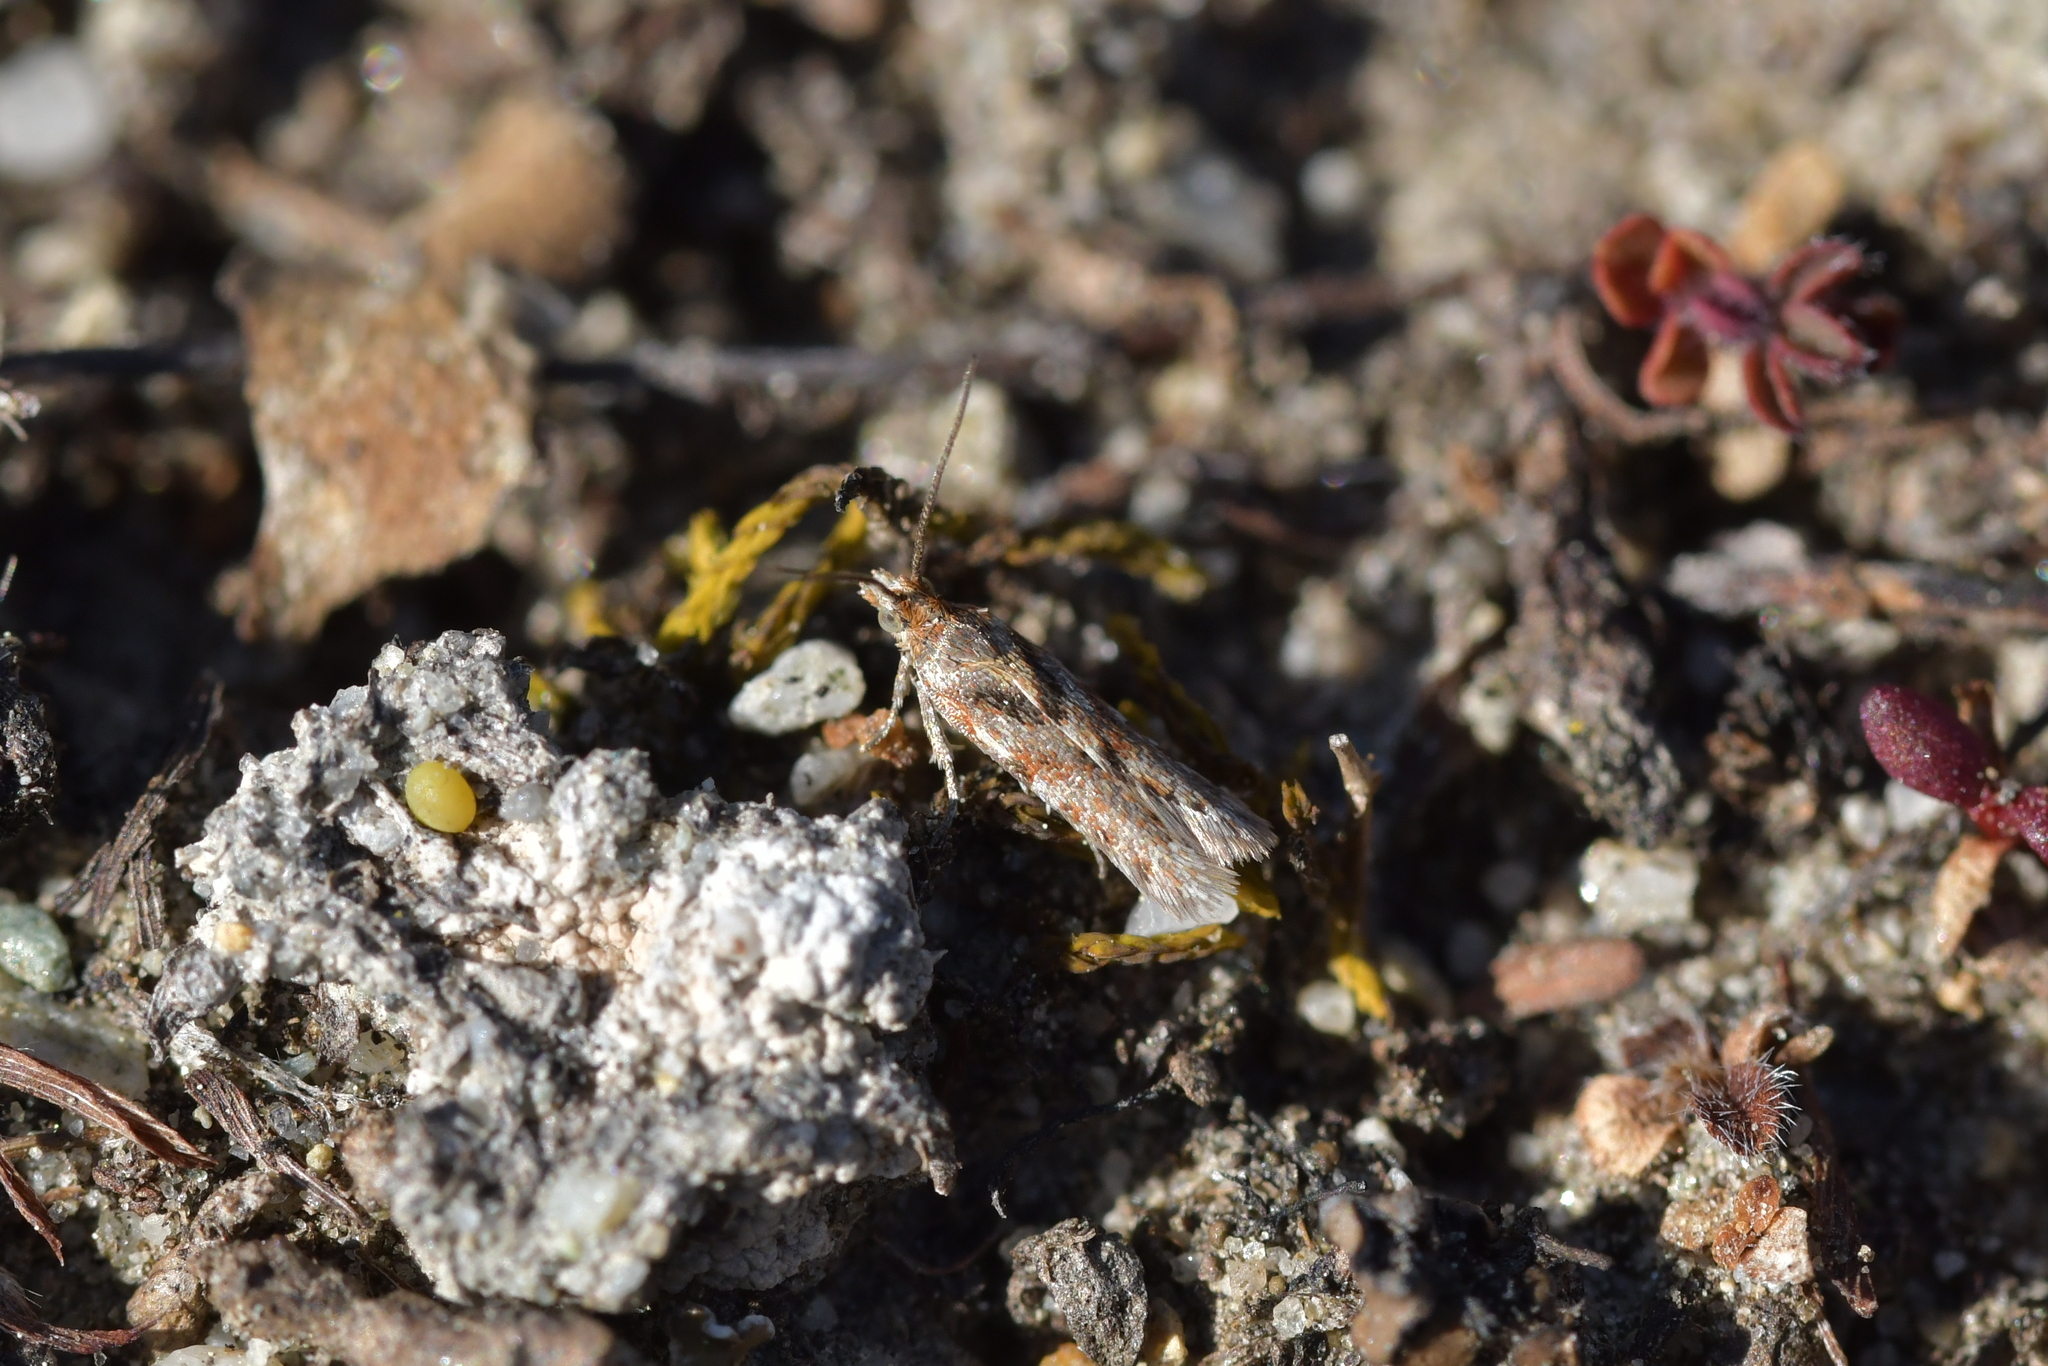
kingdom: Animalia
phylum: Arthropoda
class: Insecta
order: Lepidoptera
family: Tortricidae
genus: Eurythecta
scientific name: Eurythecta zelaea
